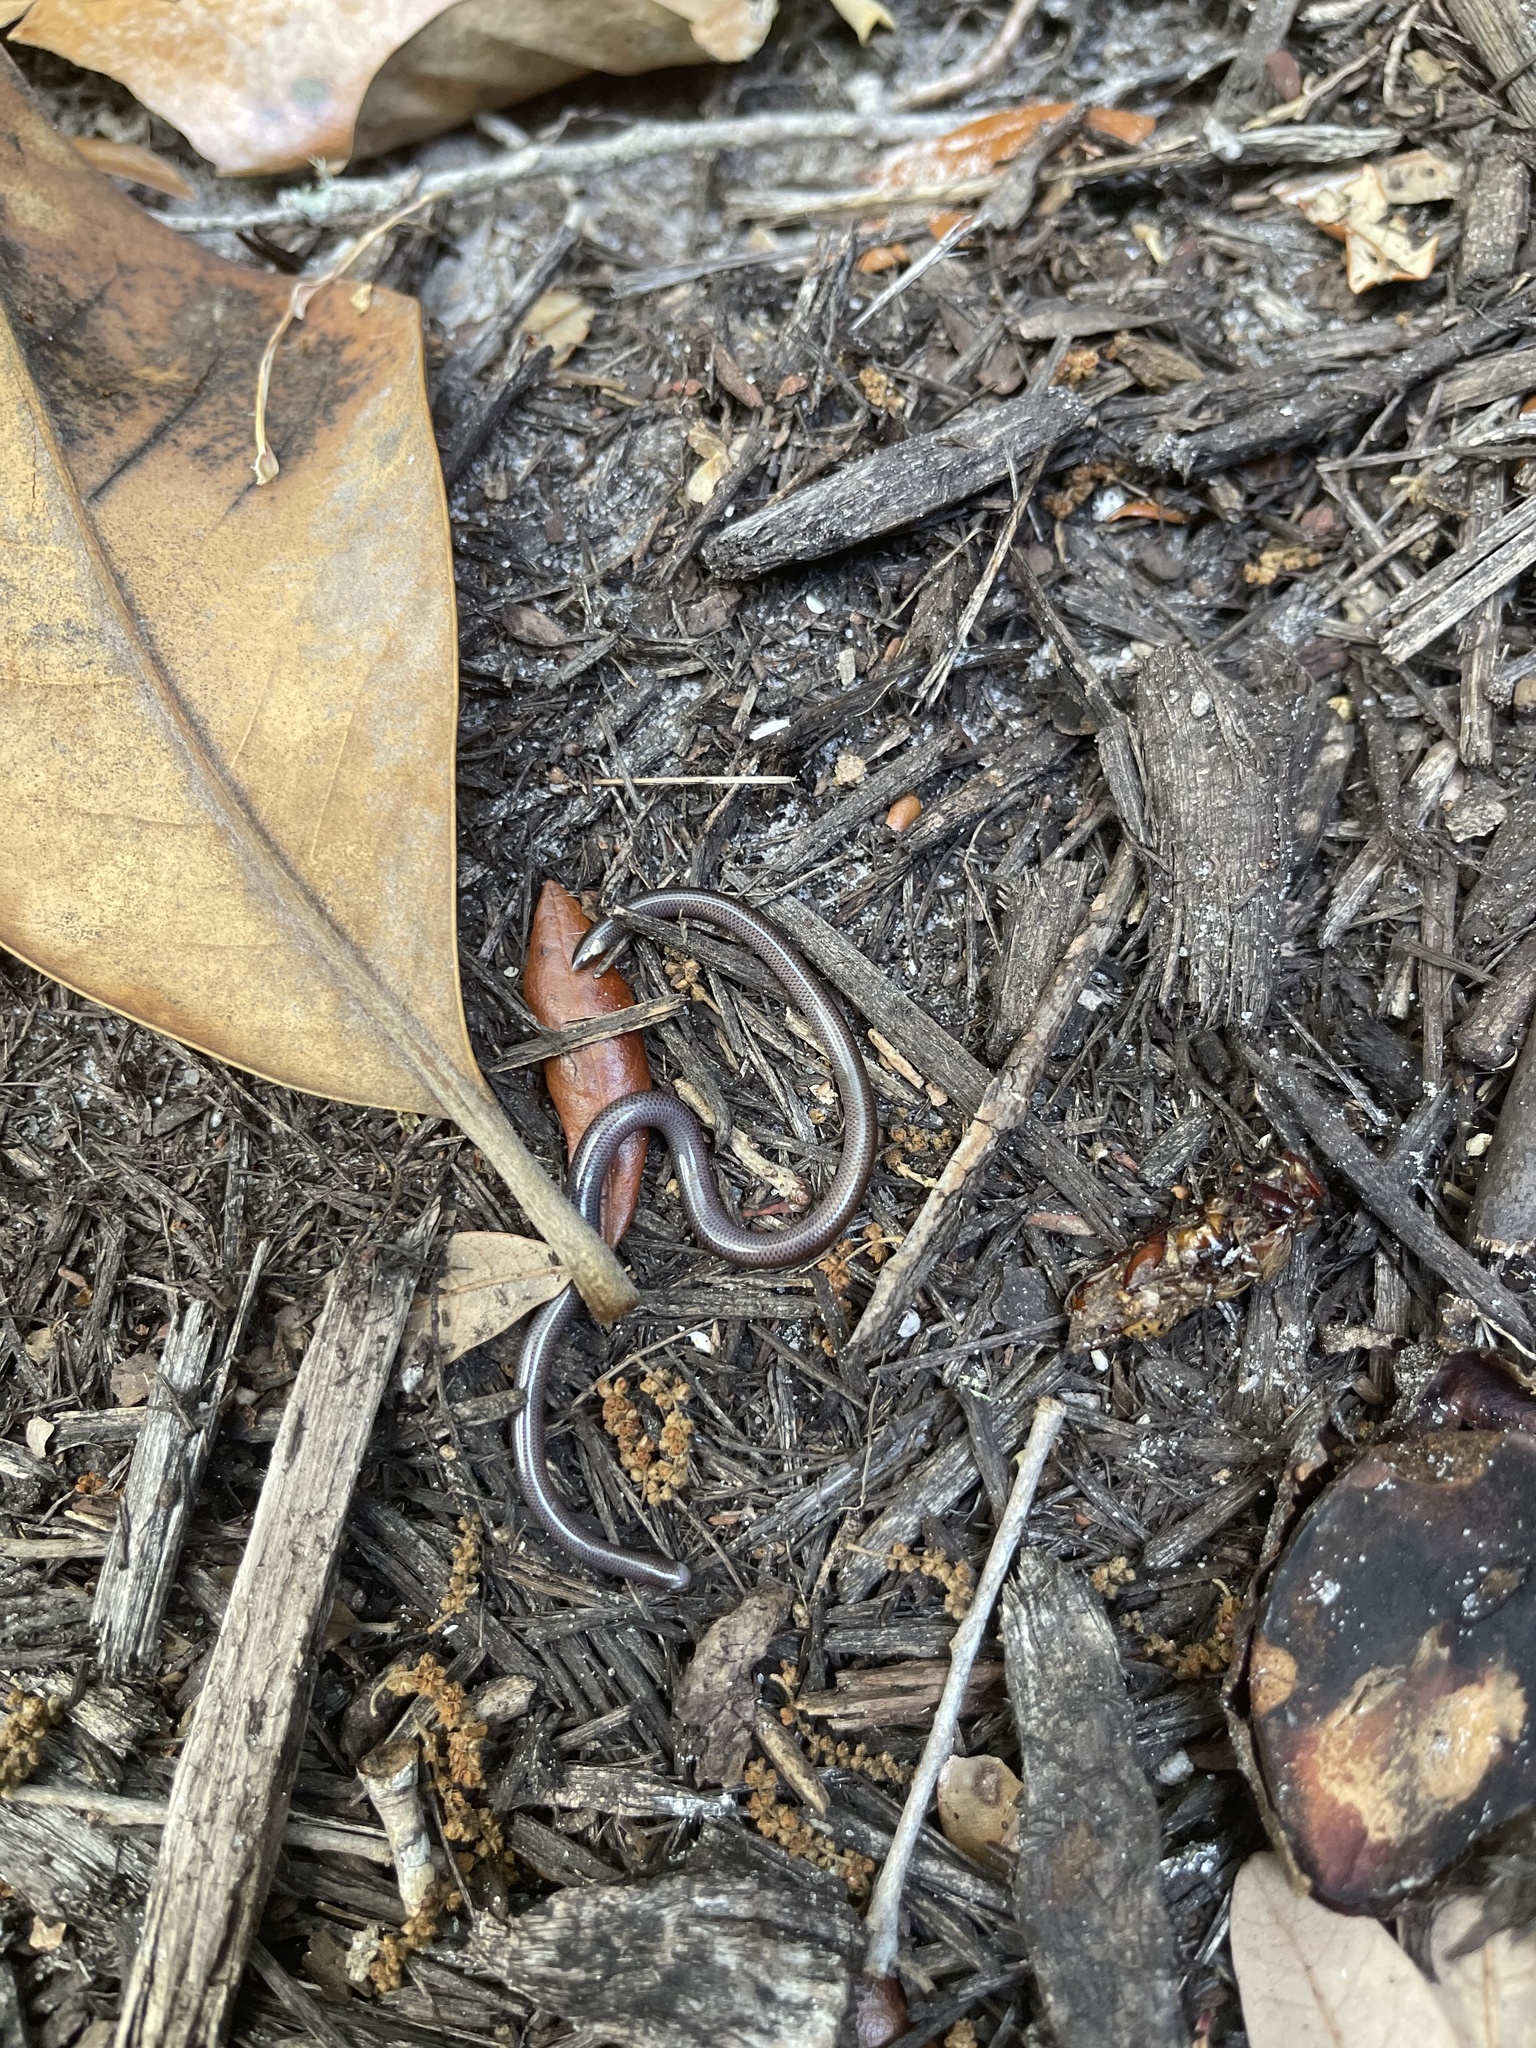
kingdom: Animalia
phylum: Chordata
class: Squamata
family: Typhlopidae
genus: Indotyphlops
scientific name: Indotyphlops braminus
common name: Brahminy blindsnake
